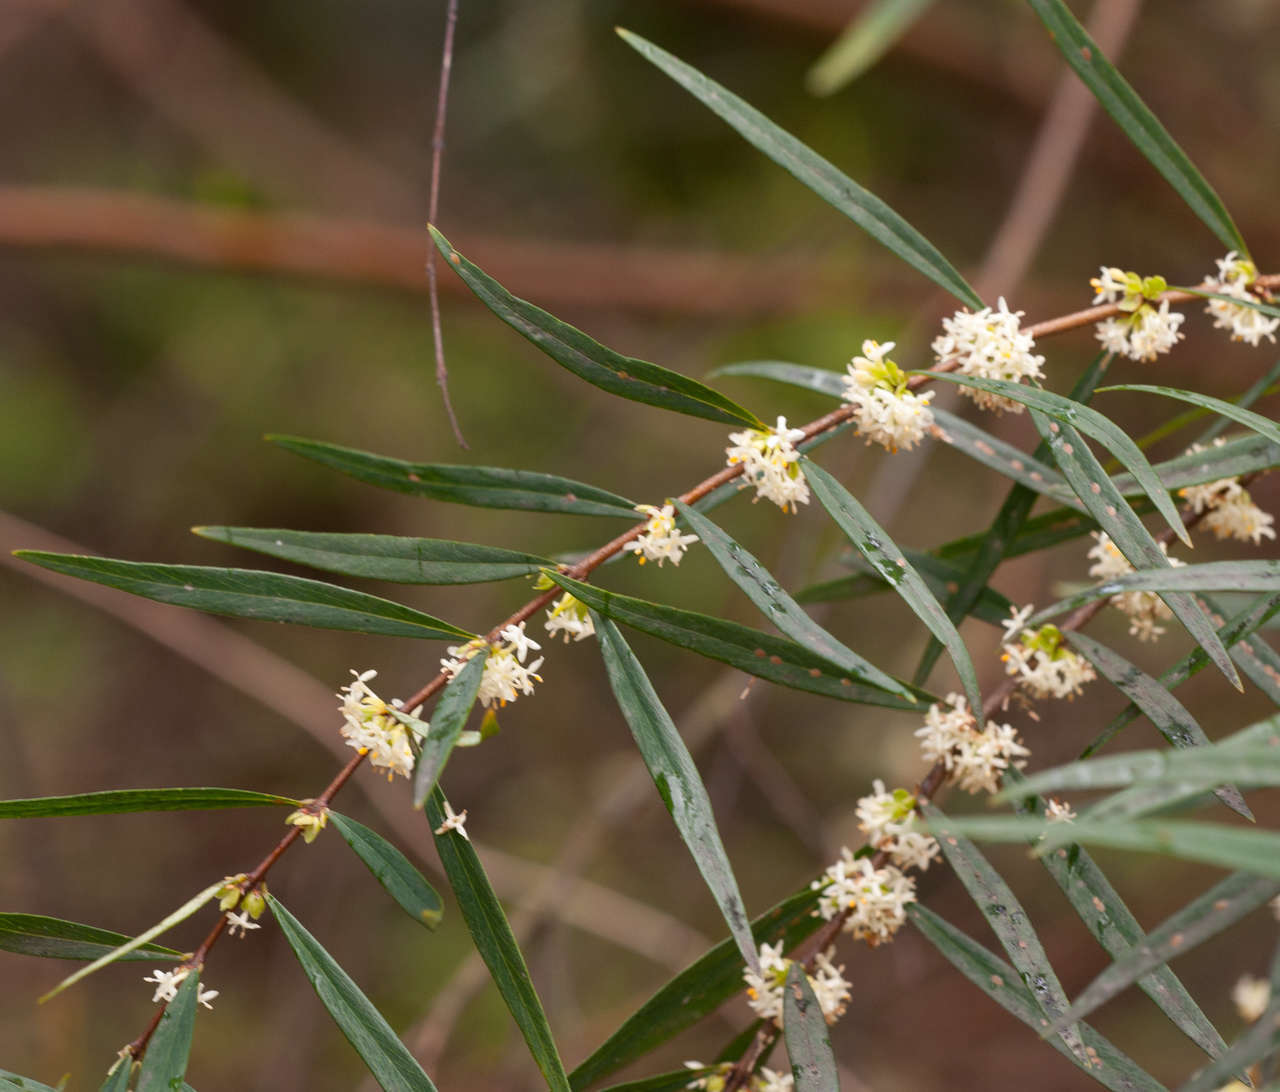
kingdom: Plantae
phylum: Tracheophyta
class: Magnoliopsida
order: Malvales
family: Thymelaeaceae
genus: Pimelea
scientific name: Pimelea axiflora
